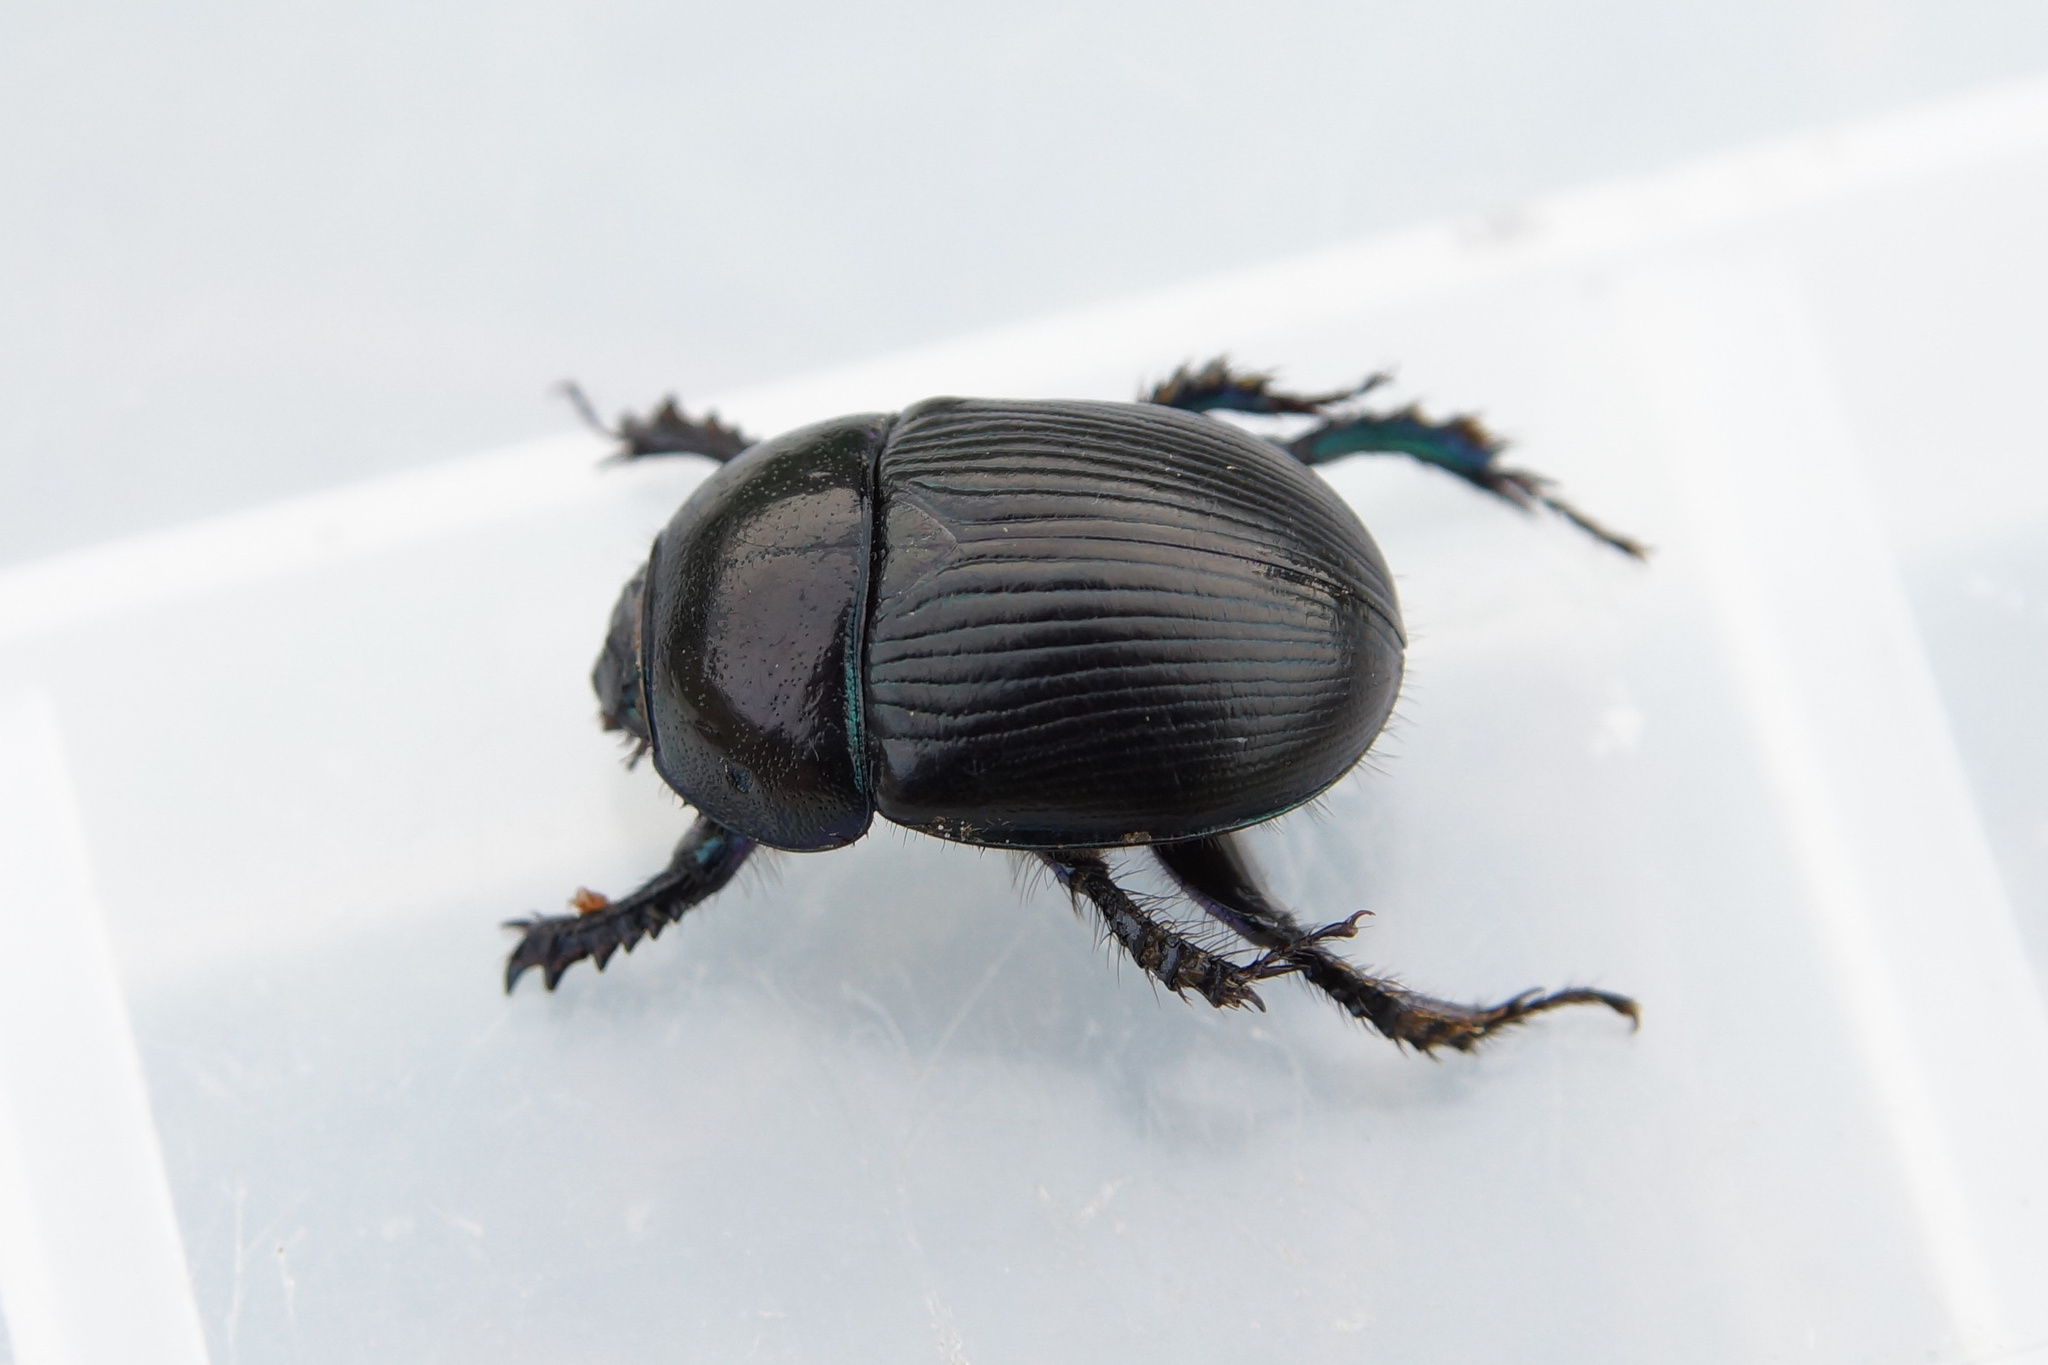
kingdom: Animalia
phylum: Arthropoda
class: Insecta
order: Coleoptera
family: Geotrupidae
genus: Geotrupes
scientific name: Geotrupes spiniger
